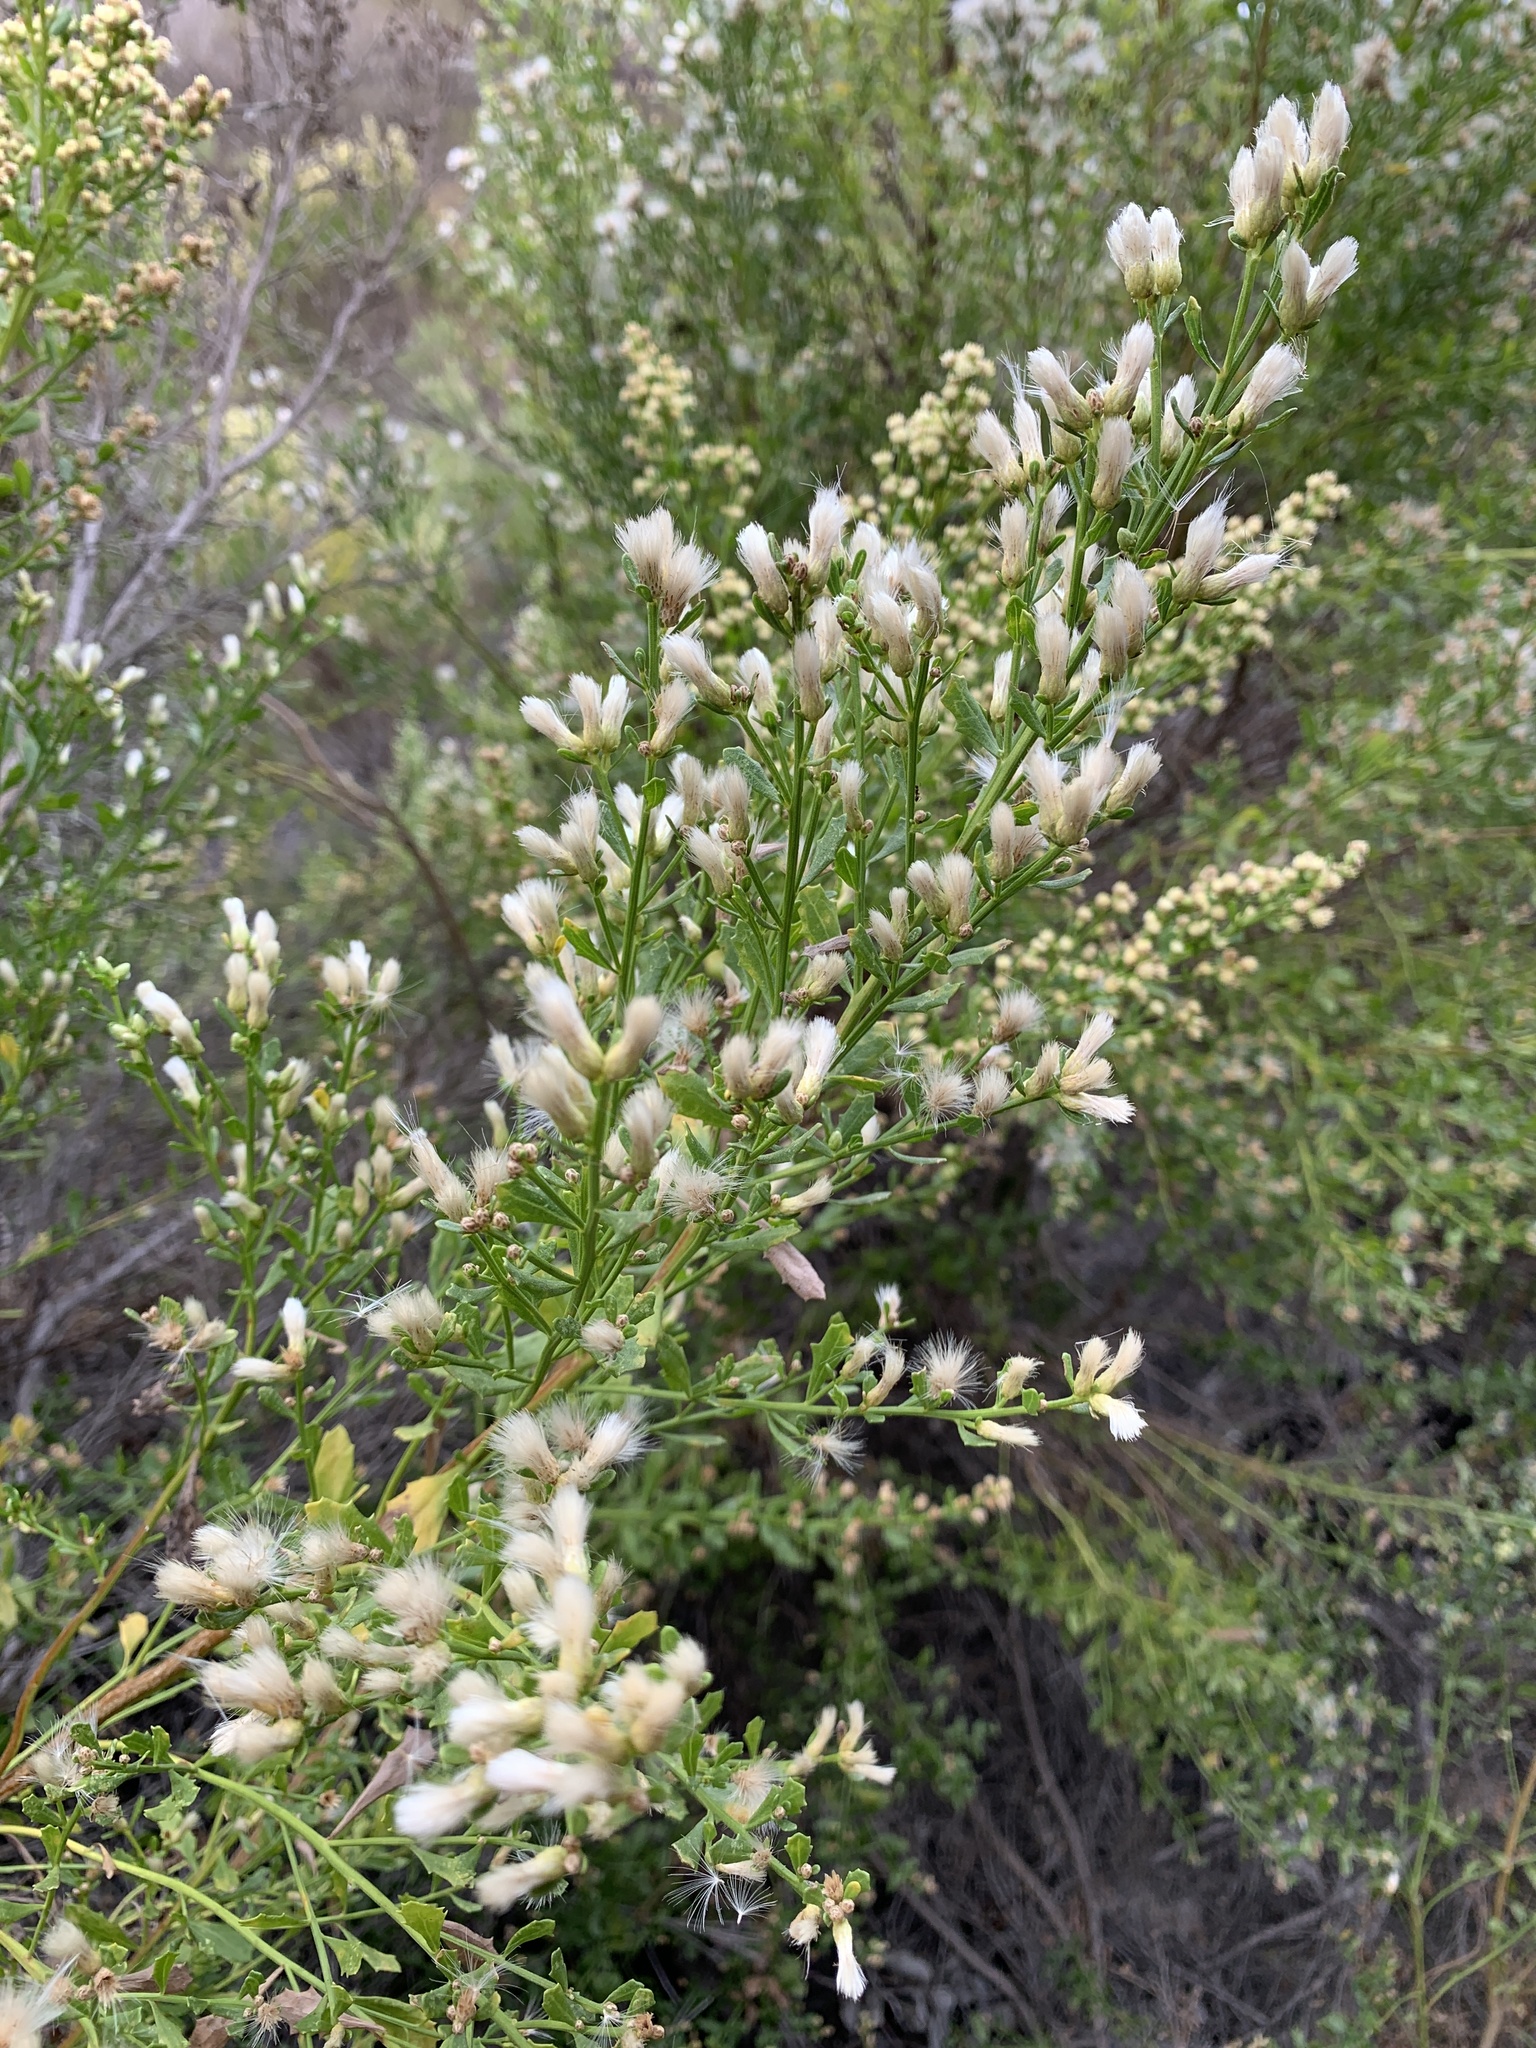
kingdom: Plantae
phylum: Tracheophyta
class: Magnoliopsida
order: Asterales
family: Asteraceae
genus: Baccharis
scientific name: Baccharis pilularis
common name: Coyotebrush
